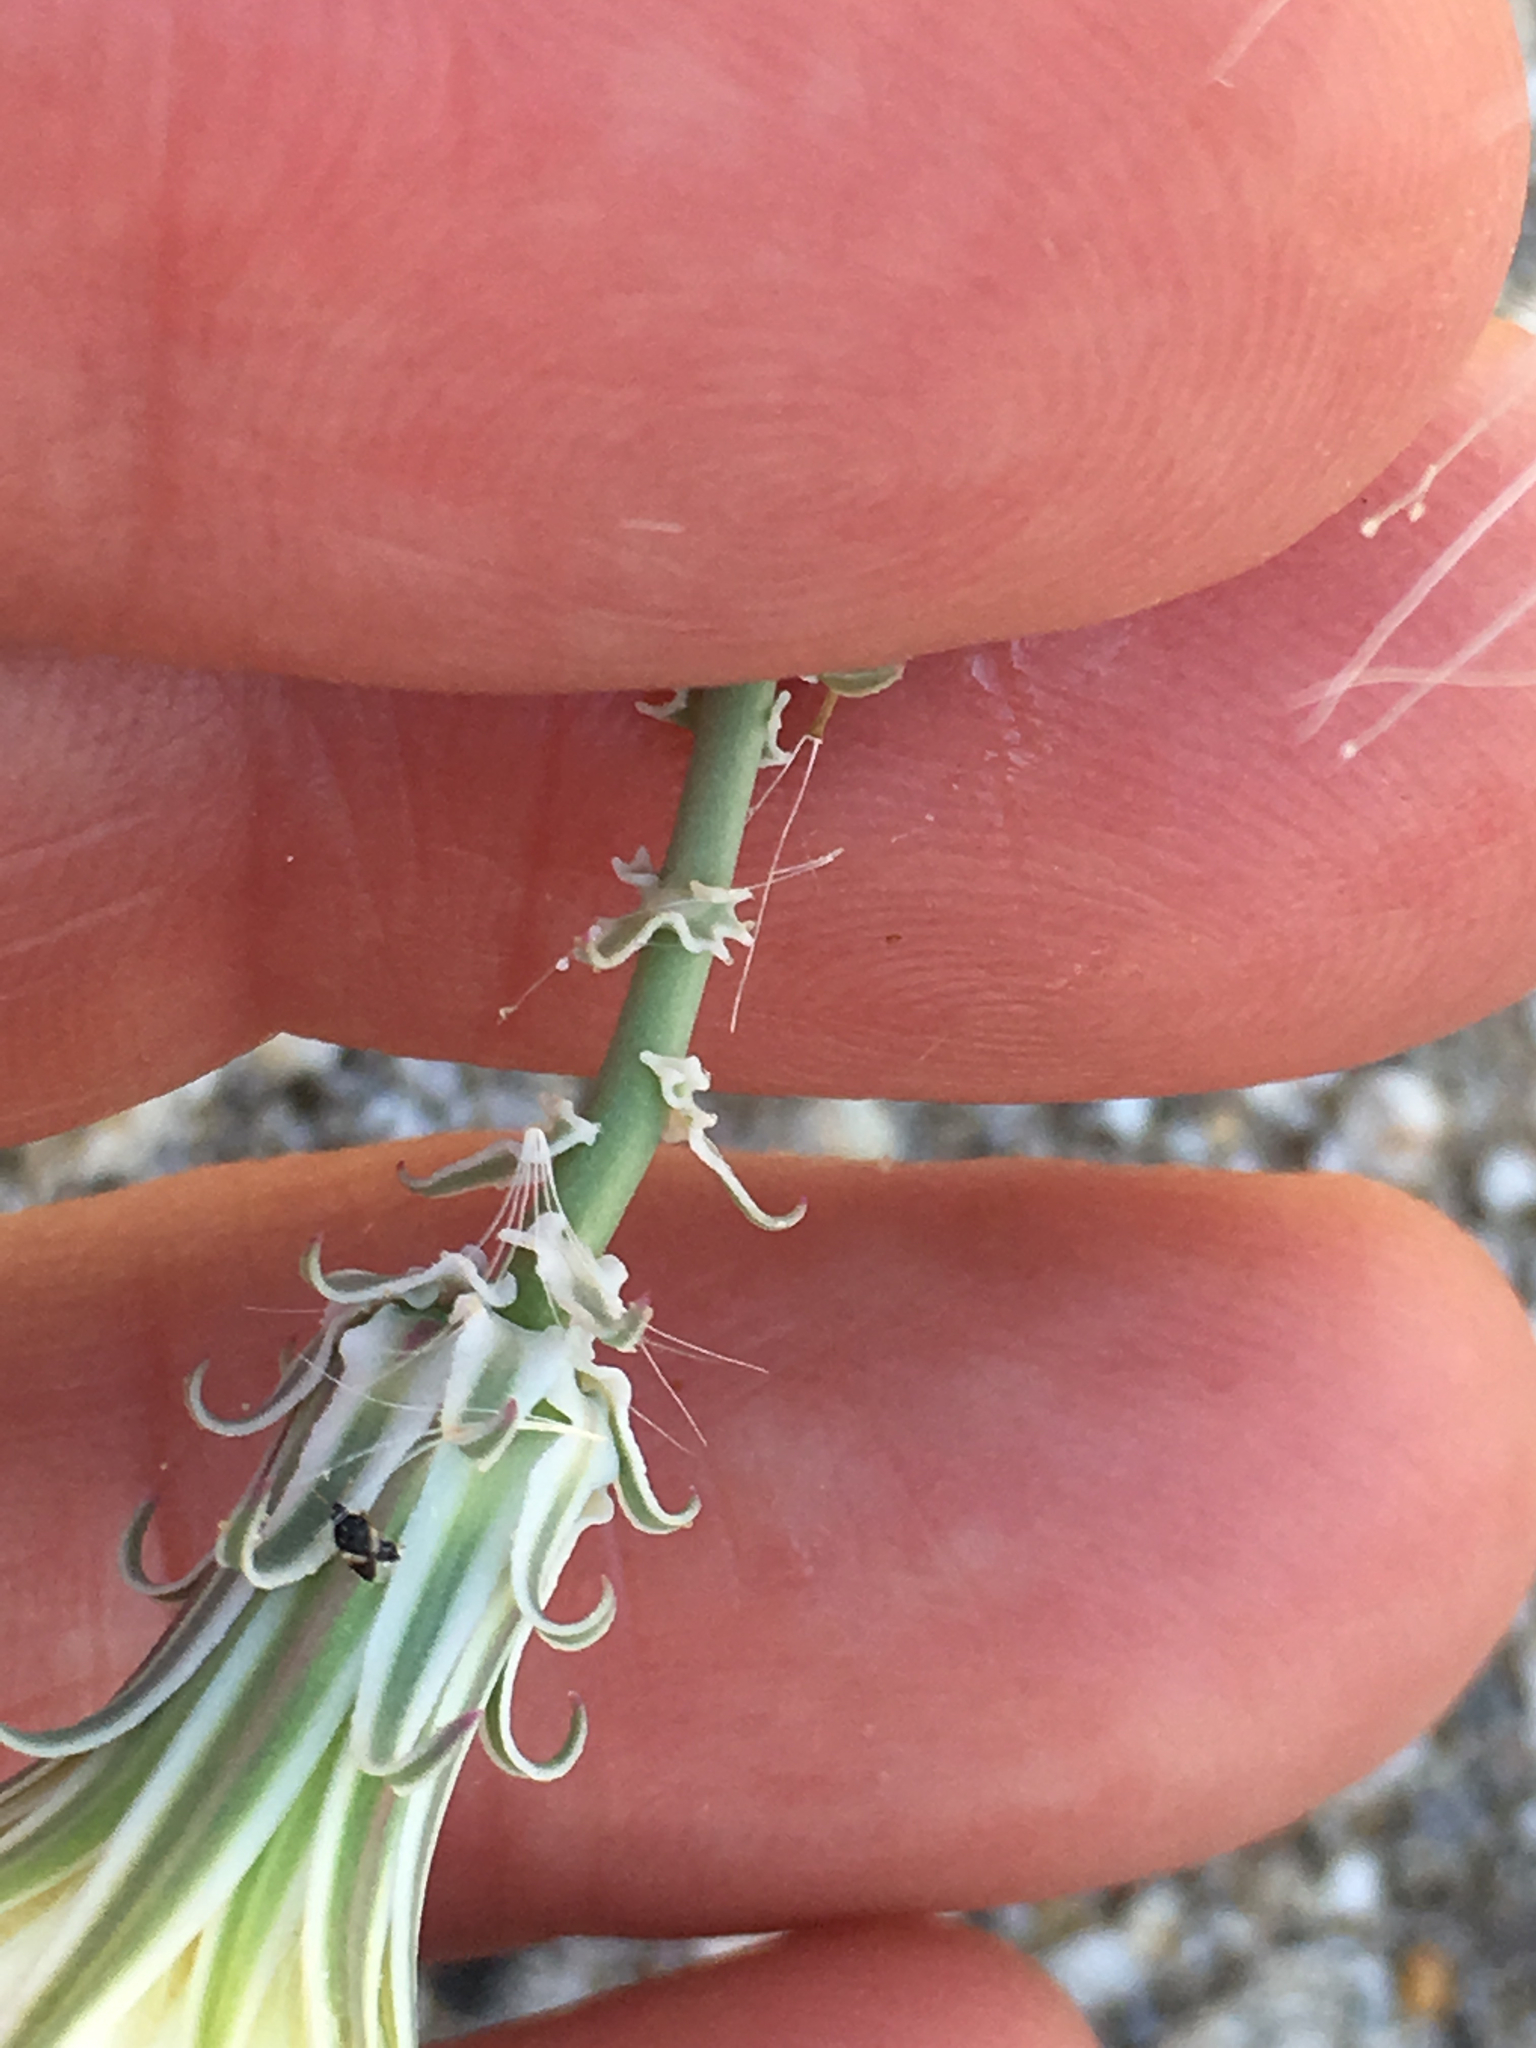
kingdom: Plantae
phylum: Tracheophyta
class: Magnoliopsida
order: Asterales
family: Asteraceae
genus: Rafinesquia
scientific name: Rafinesquia neomexicana
